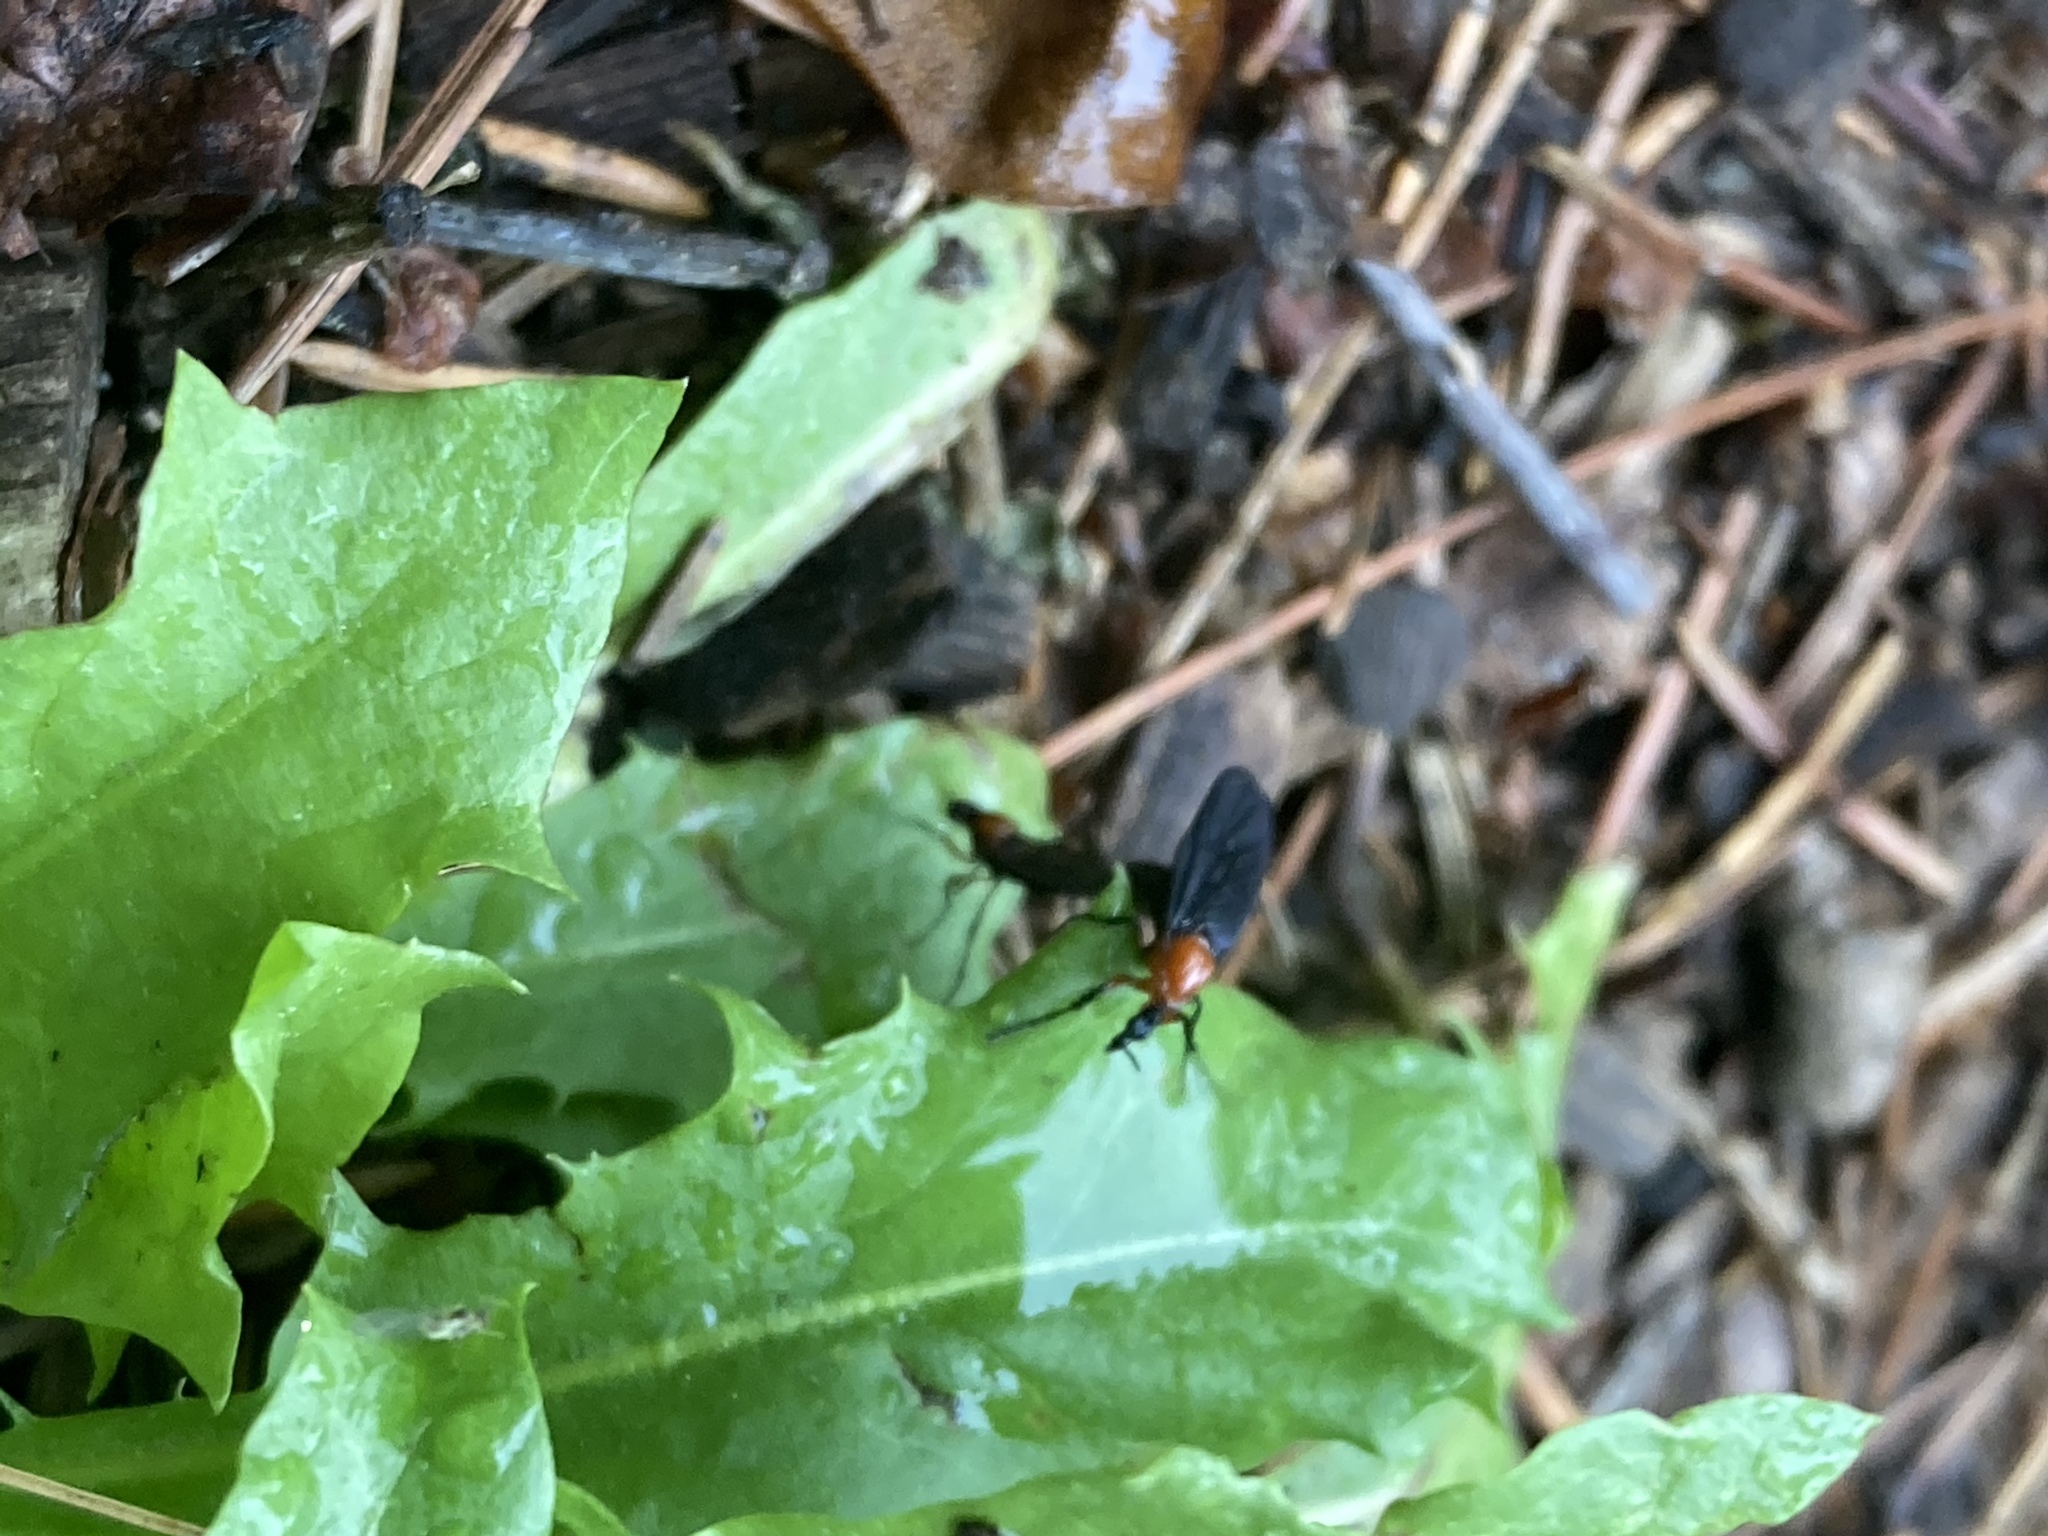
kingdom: Animalia
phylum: Arthropoda
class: Insecta
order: Diptera
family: Bibionidae
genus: Dilophus
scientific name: Dilophus spinipes
